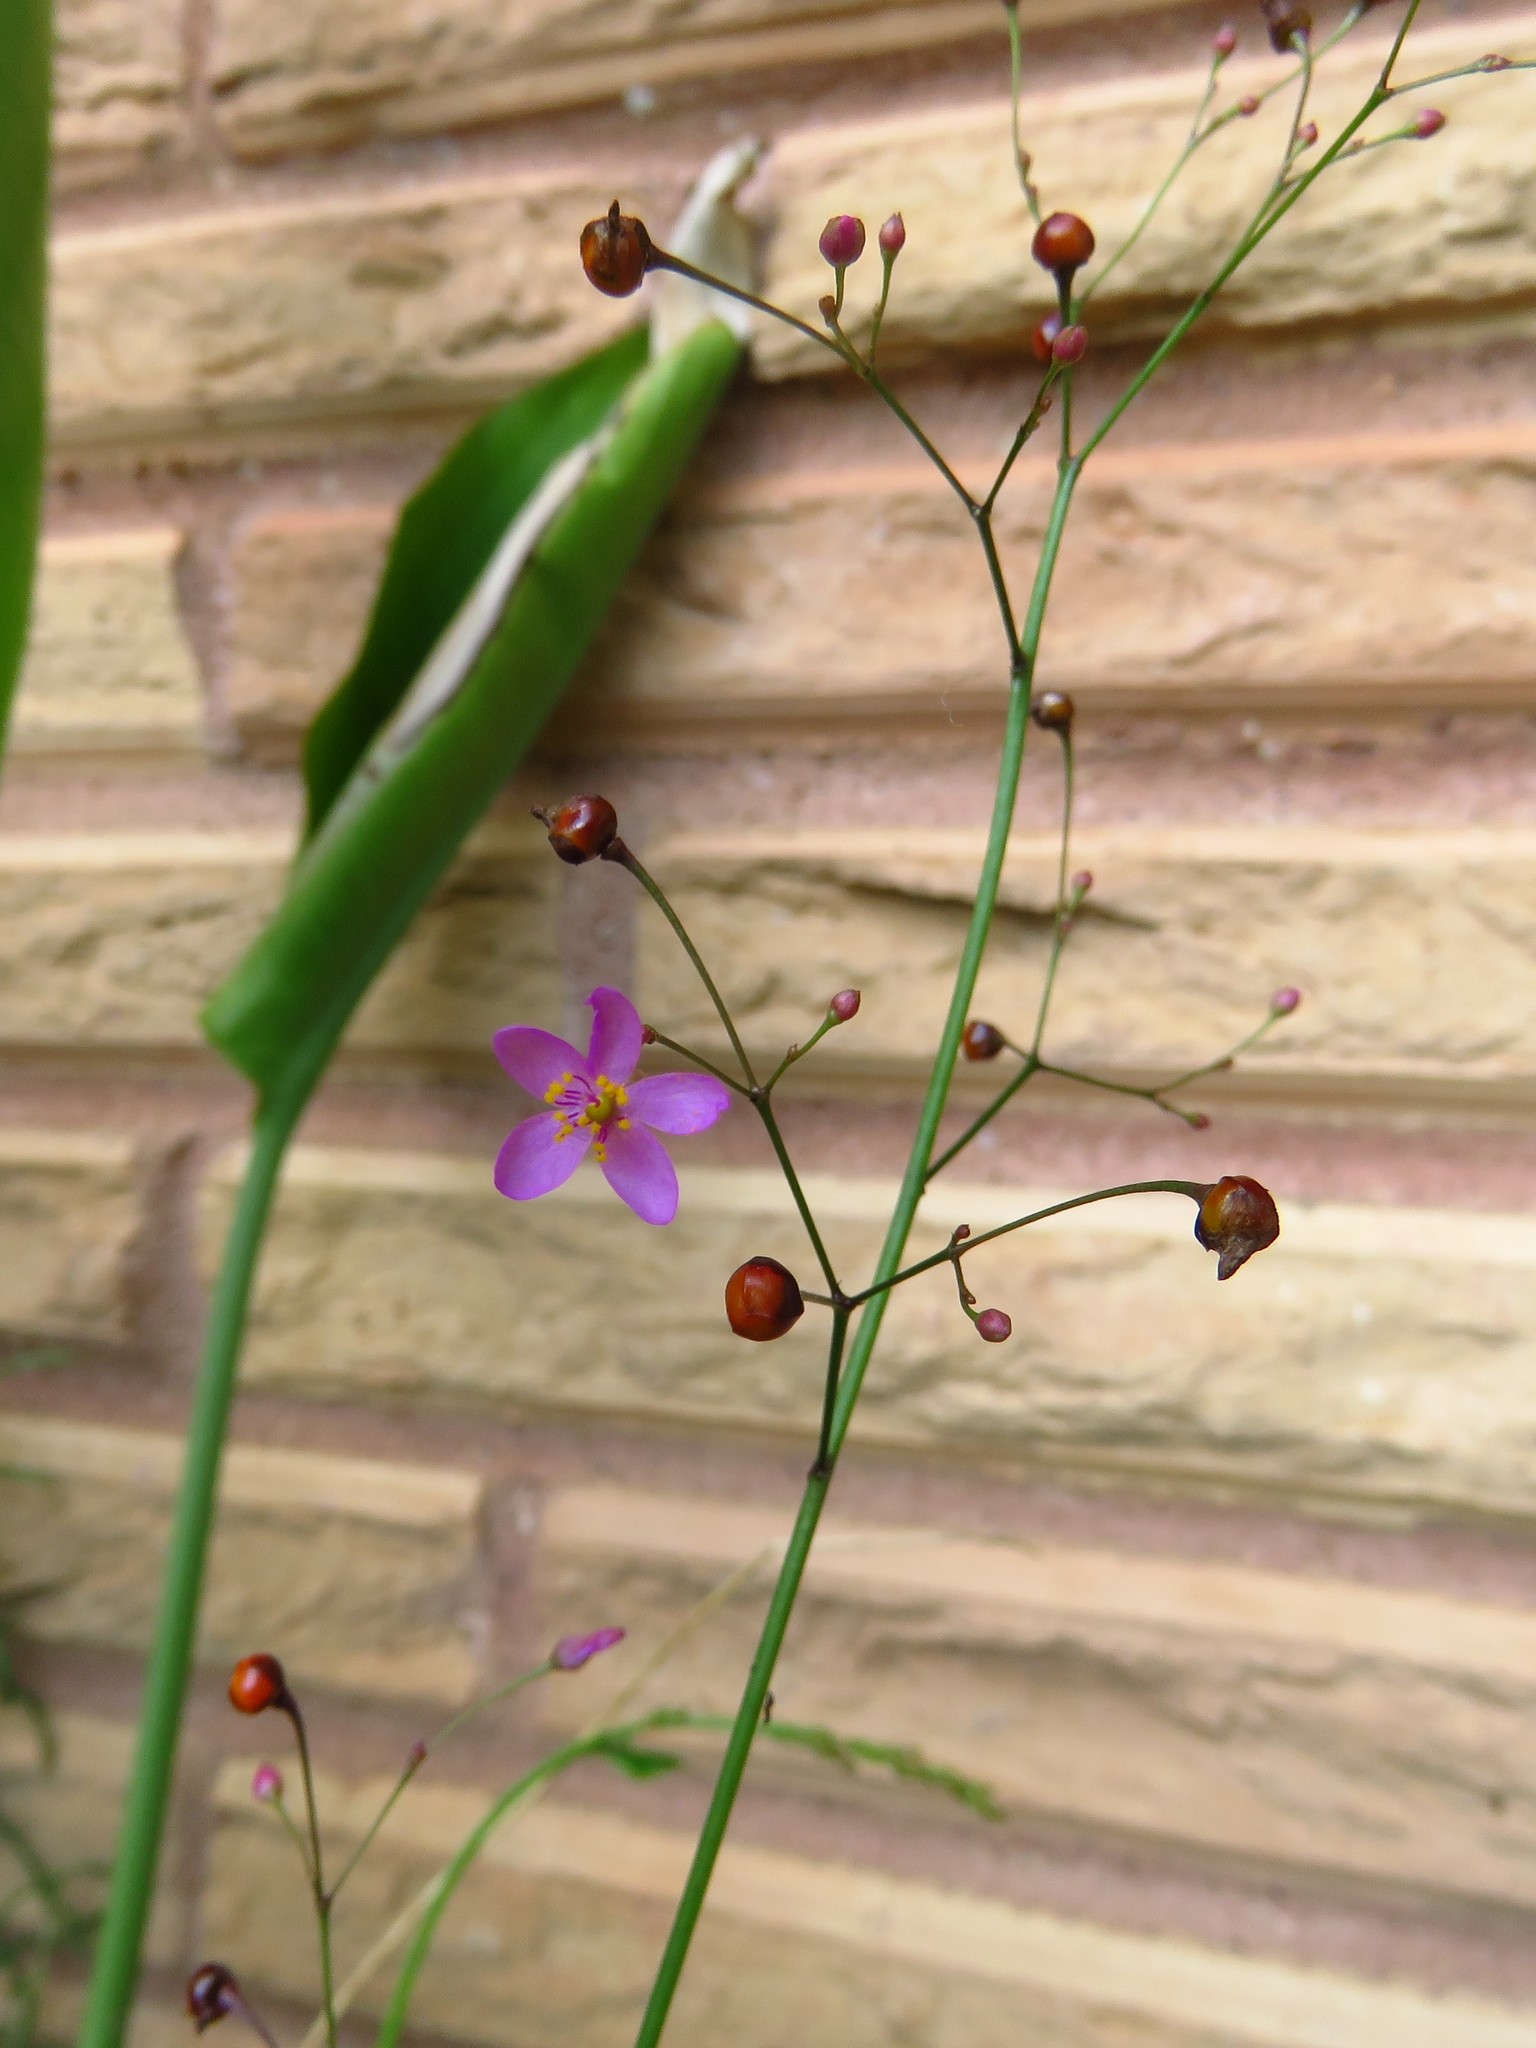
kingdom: Plantae
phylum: Tracheophyta
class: Magnoliopsida
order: Caryophyllales
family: Talinaceae
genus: Talinum
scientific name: Talinum paniculatum
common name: Jewels of opar
